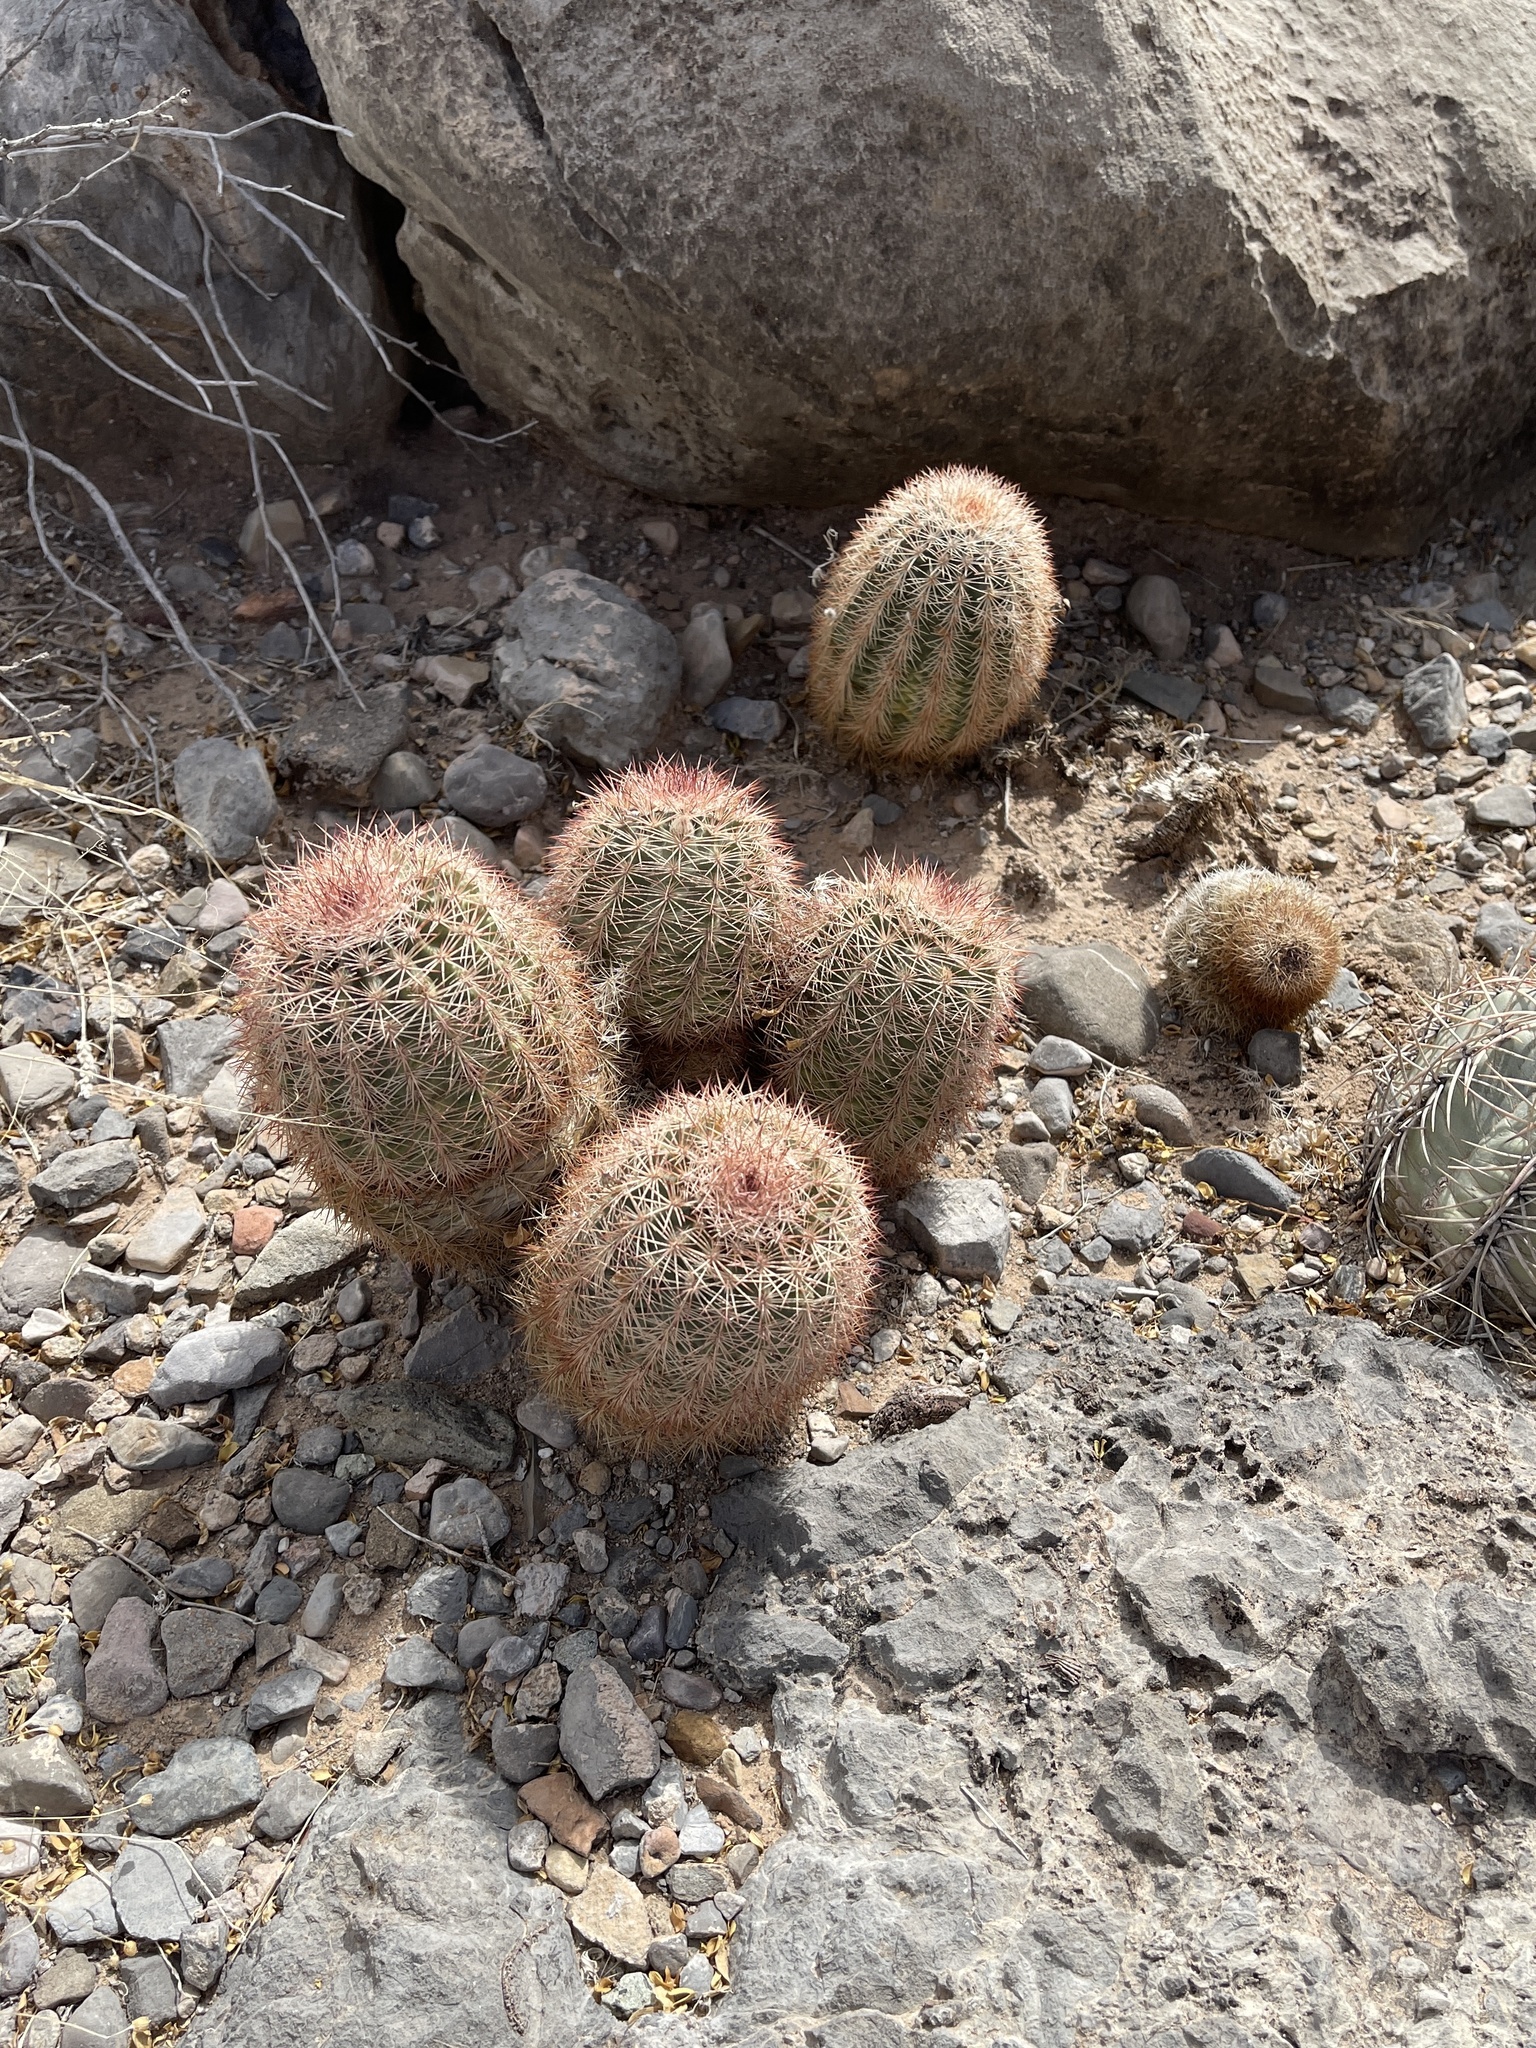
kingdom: Plantae
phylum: Tracheophyta
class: Magnoliopsida
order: Caryophyllales
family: Cactaceae
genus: Echinocereus
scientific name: Echinocereus dasyacanthus
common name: Spiny hedgehog cactus
